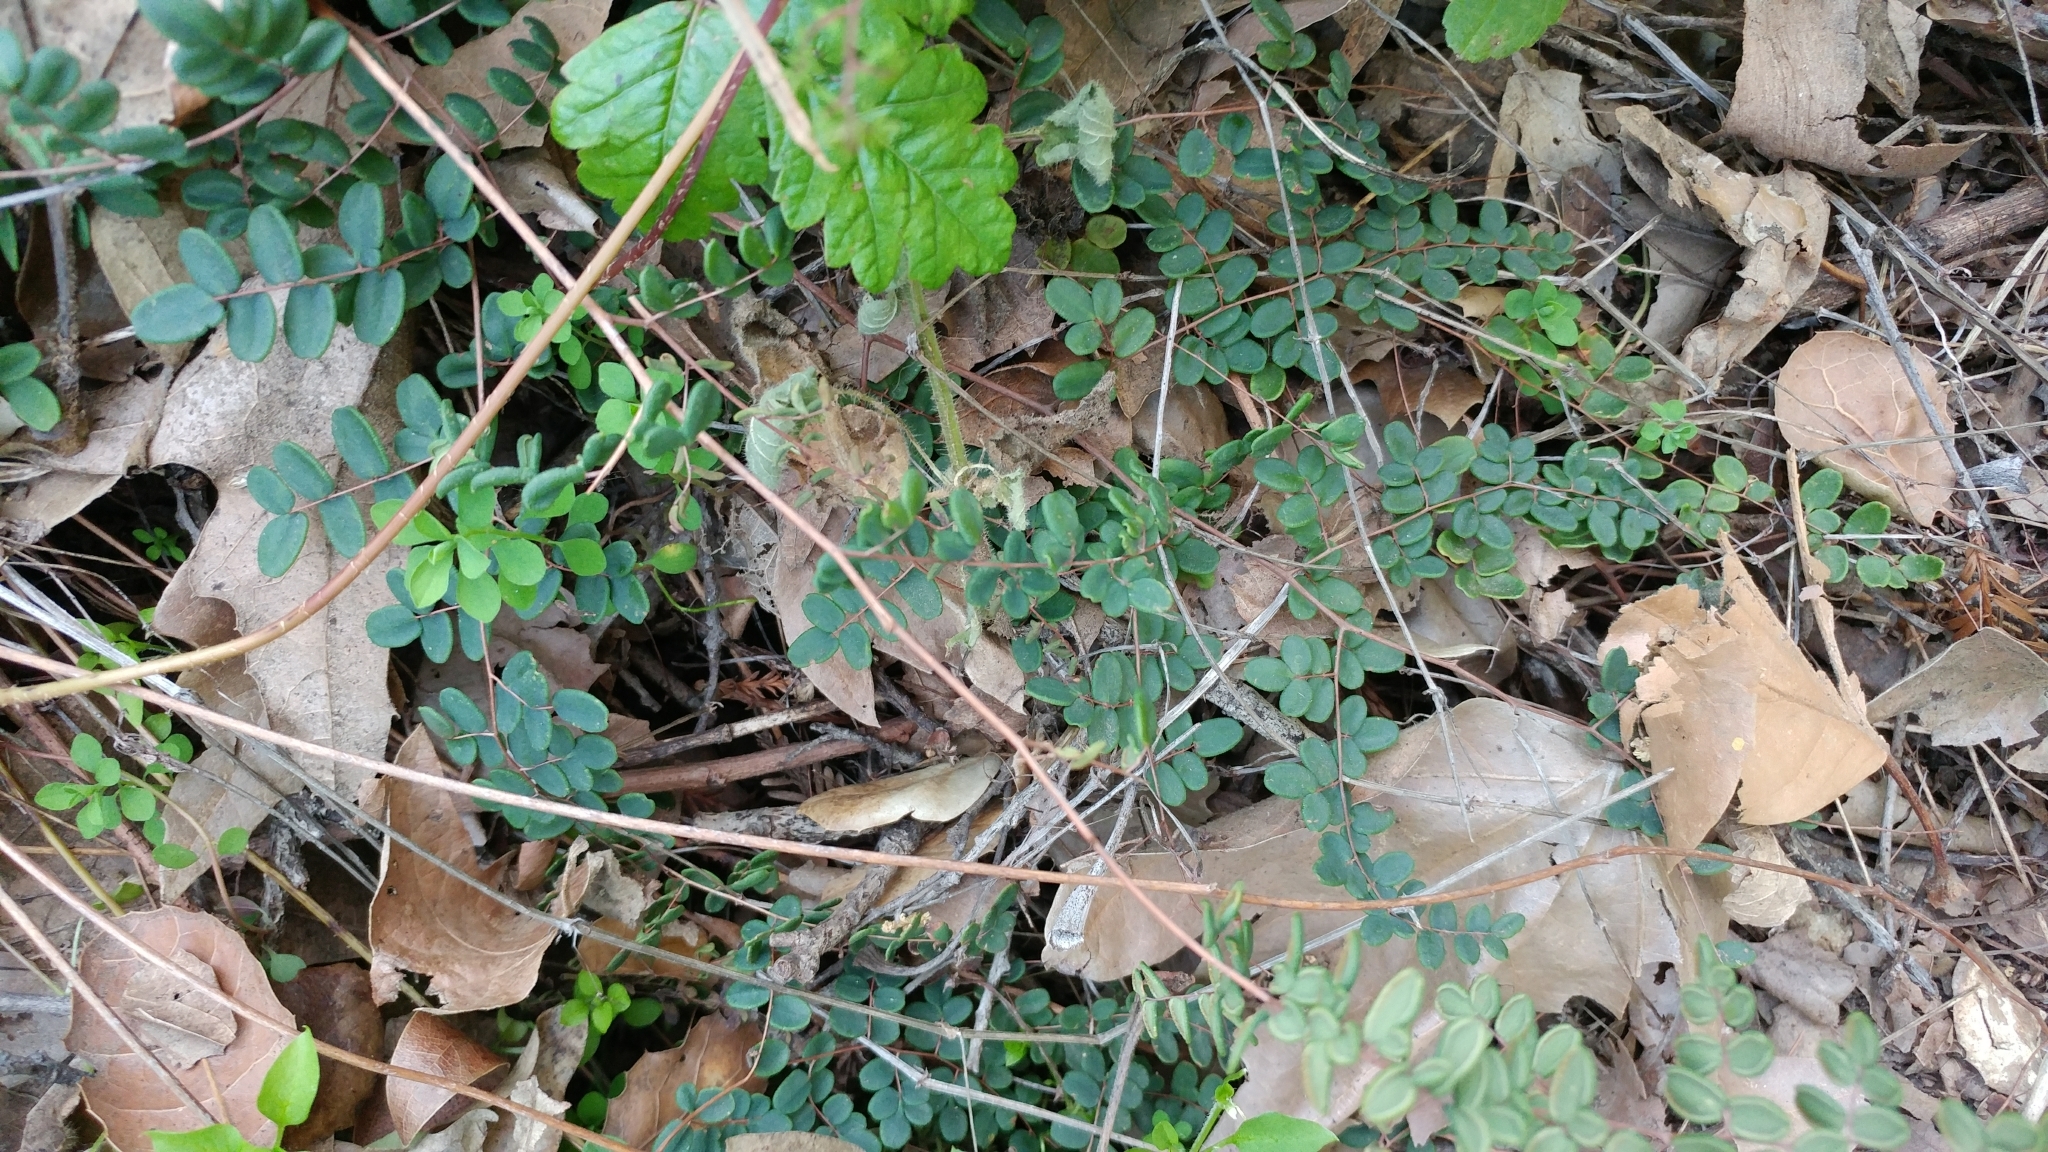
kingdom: Plantae
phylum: Tracheophyta
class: Polypodiopsida
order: Polypodiales
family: Pteridaceae
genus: Pellaea
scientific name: Pellaea andromedifolia
